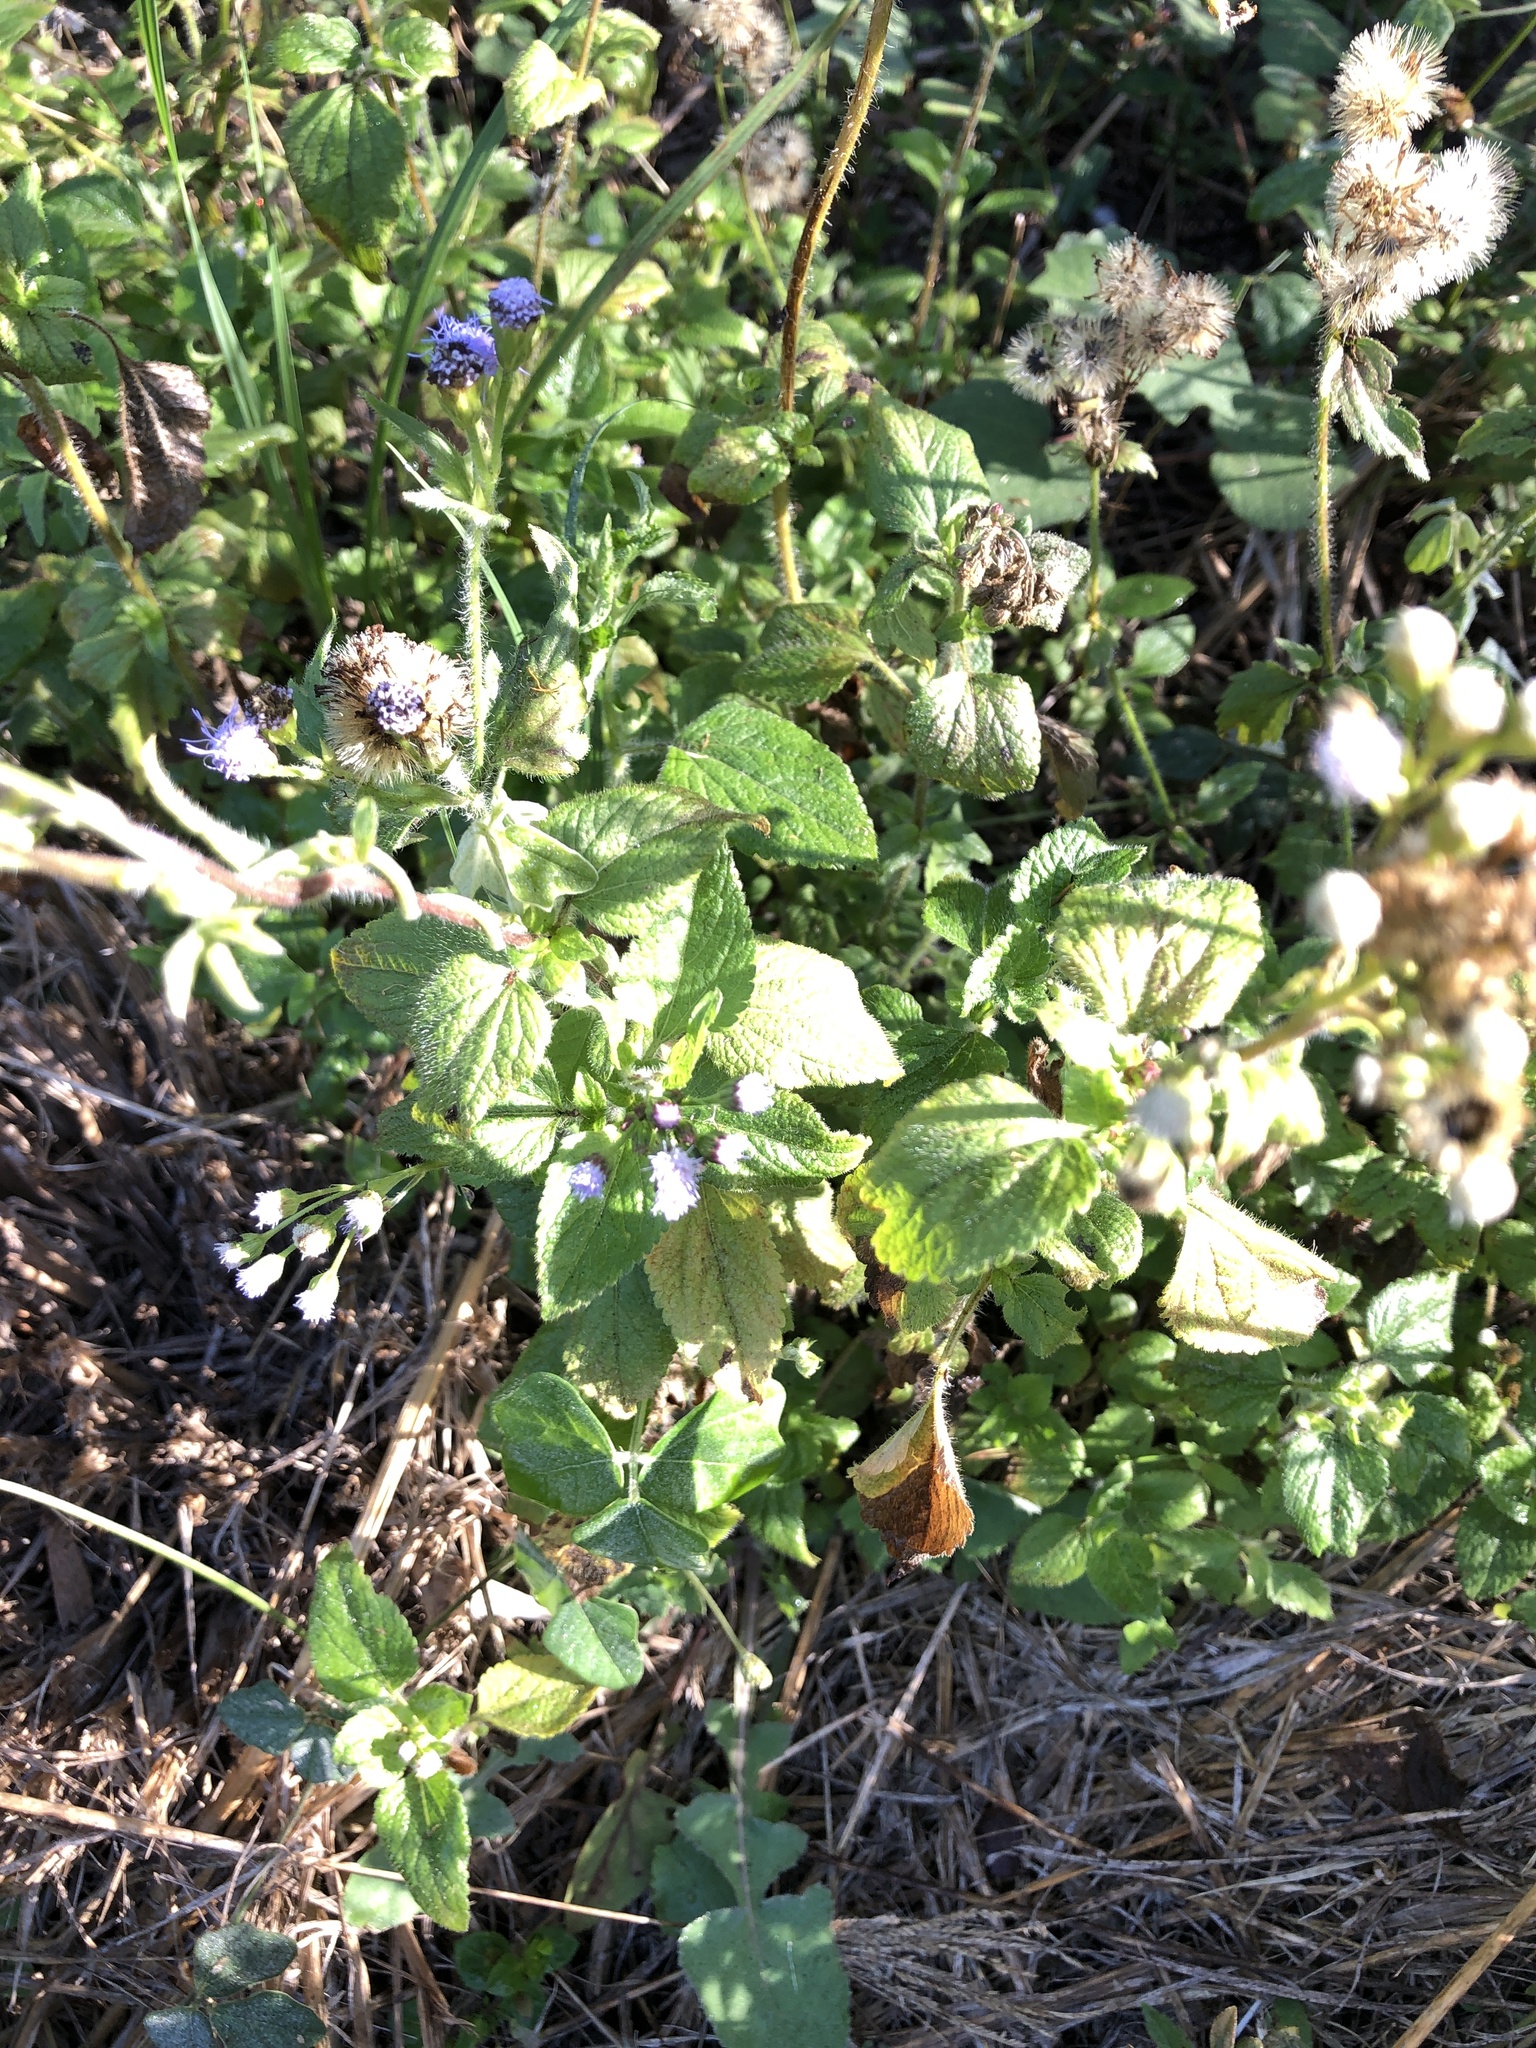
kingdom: Plantae
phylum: Tracheophyta
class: Magnoliopsida
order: Asterales
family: Asteraceae
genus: Ageratum
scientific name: Ageratum conyzoides
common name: Tropical whiteweed
